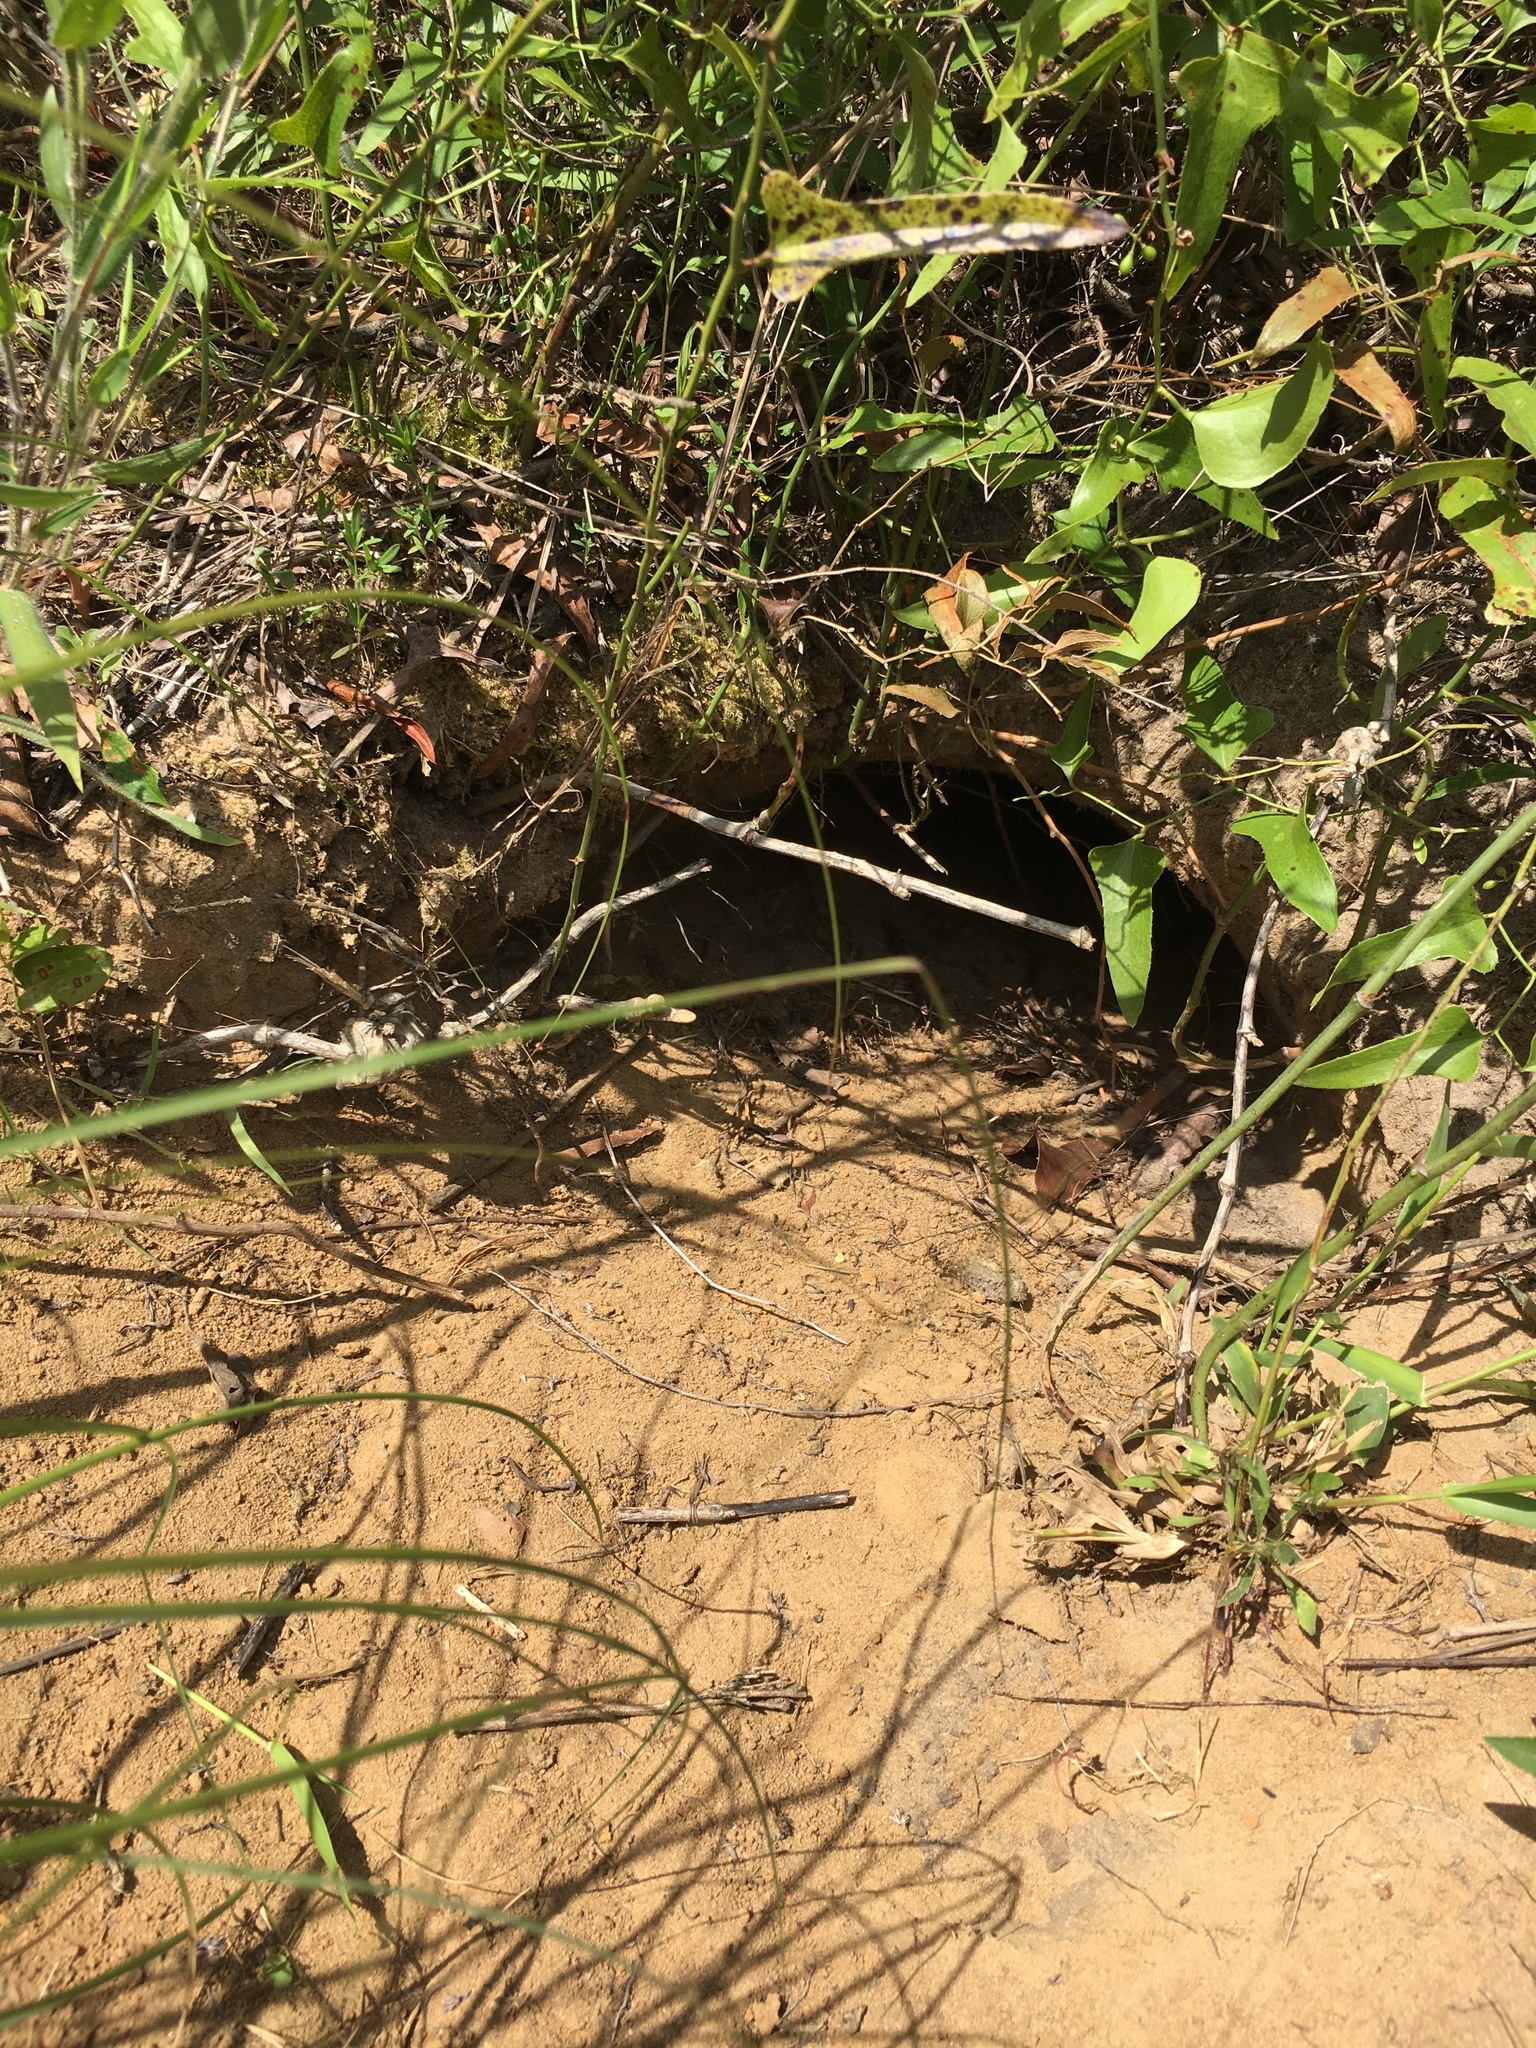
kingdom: Animalia
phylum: Chordata
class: Testudines
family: Testudinidae
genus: Gopherus
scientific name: Gopherus polyphemus
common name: Florida gopher tortoise
